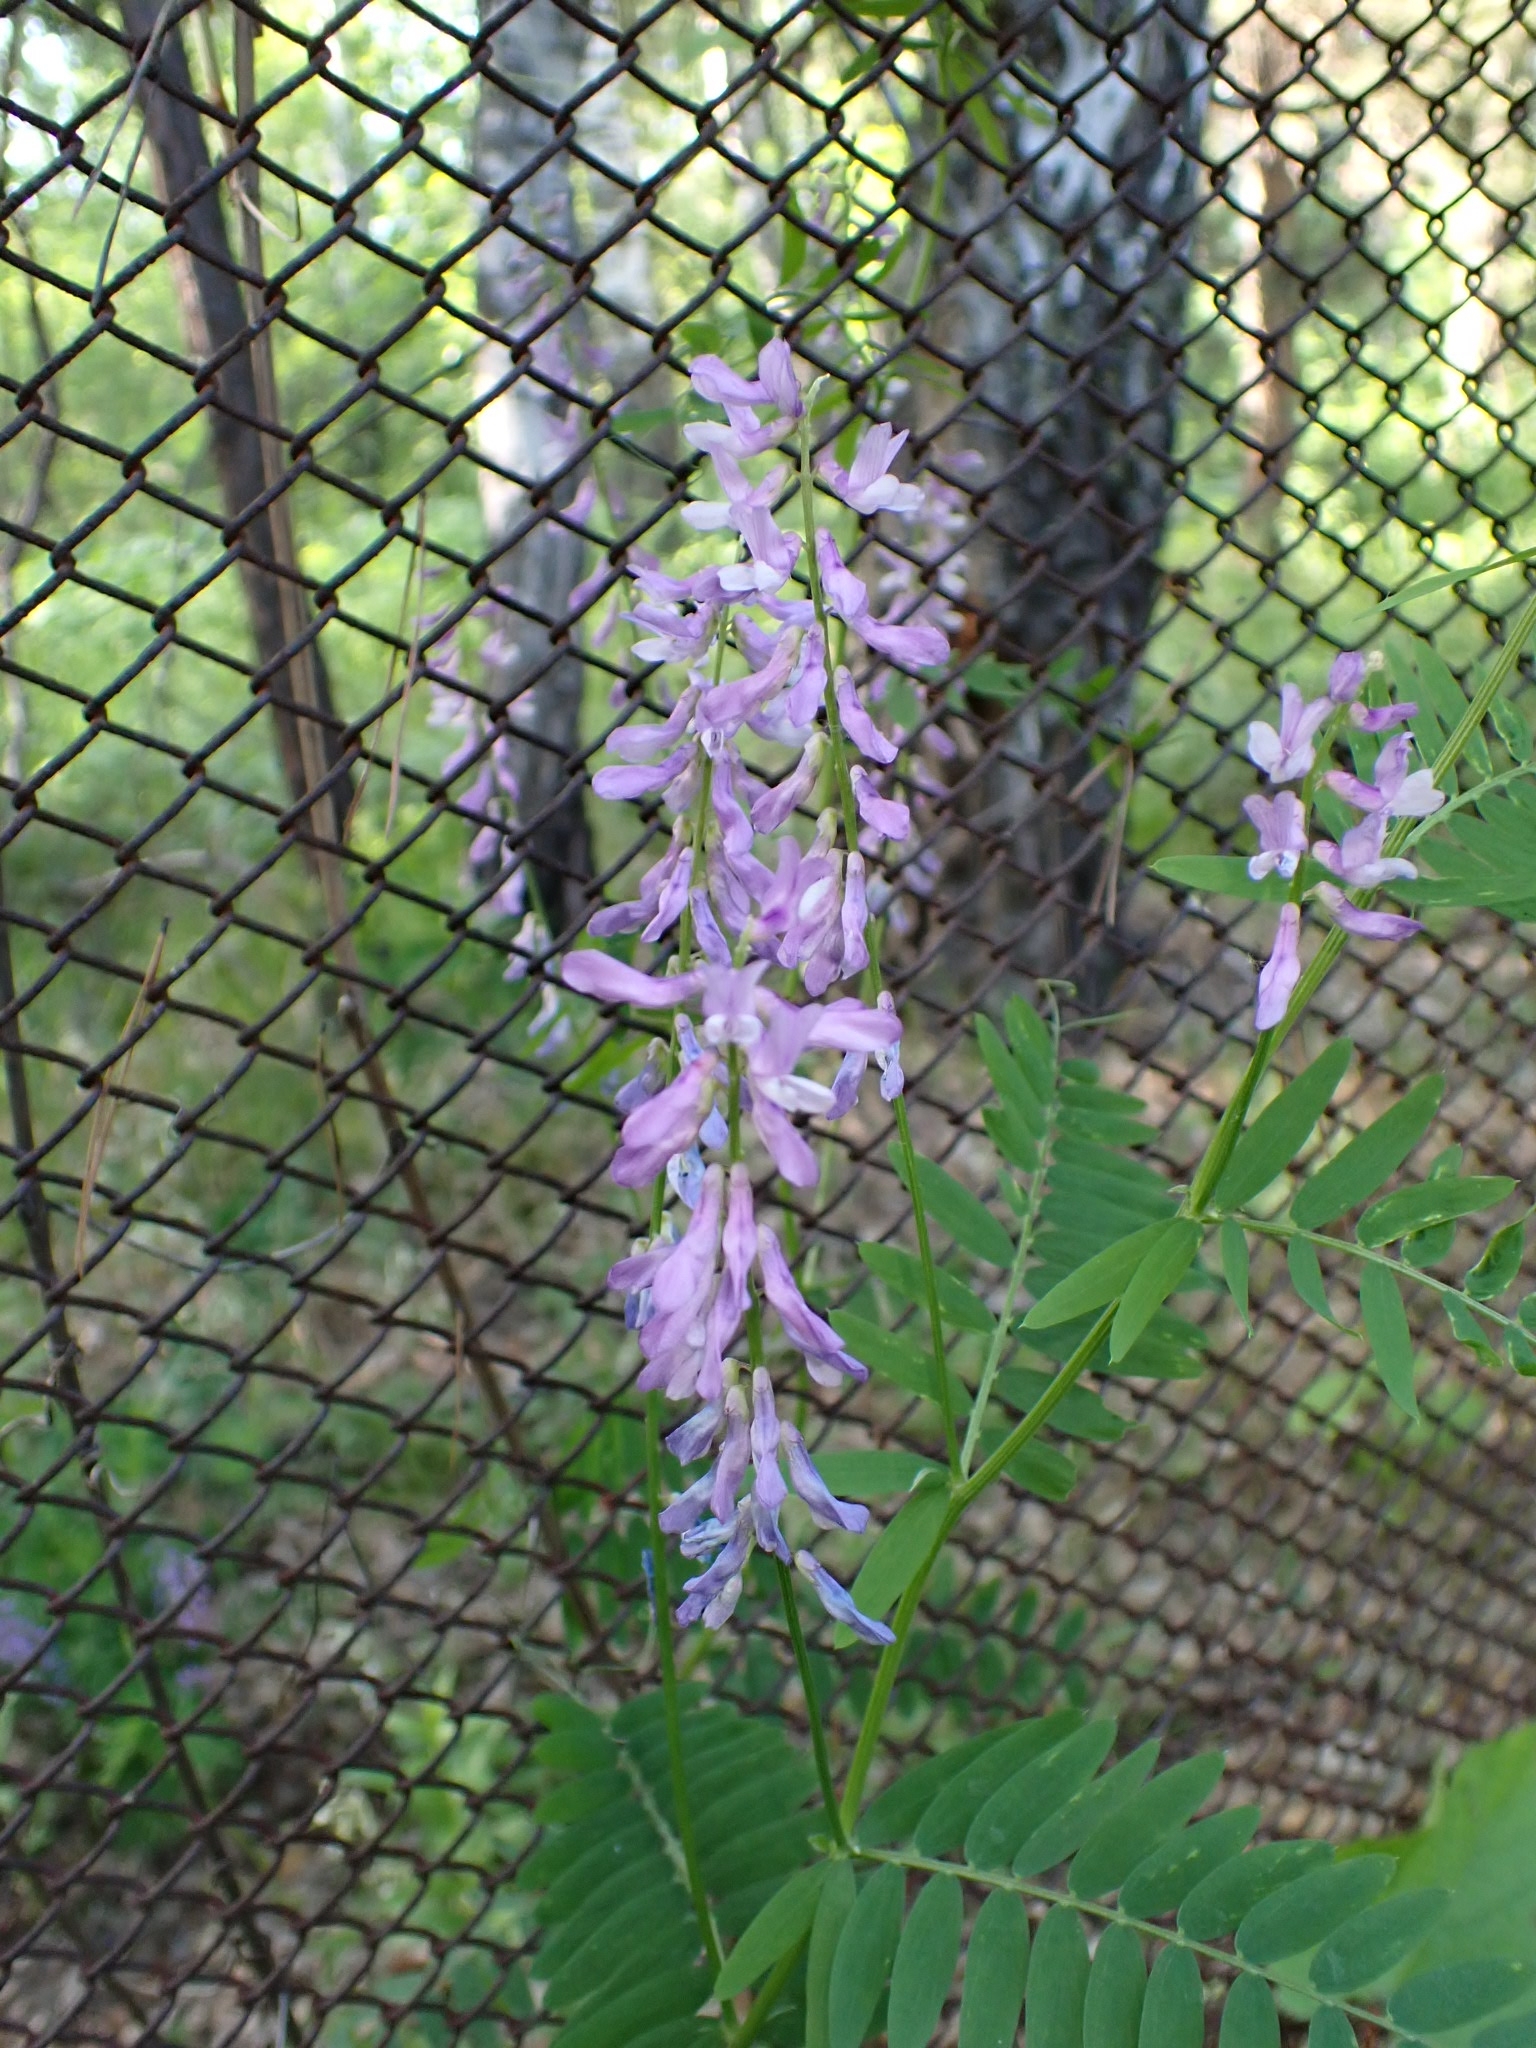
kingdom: Plantae
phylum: Tracheophyta
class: Magnoliopsida
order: Fabales
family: Fabaceae
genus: Vicia
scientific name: Vicia cracca
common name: Bird vetch
